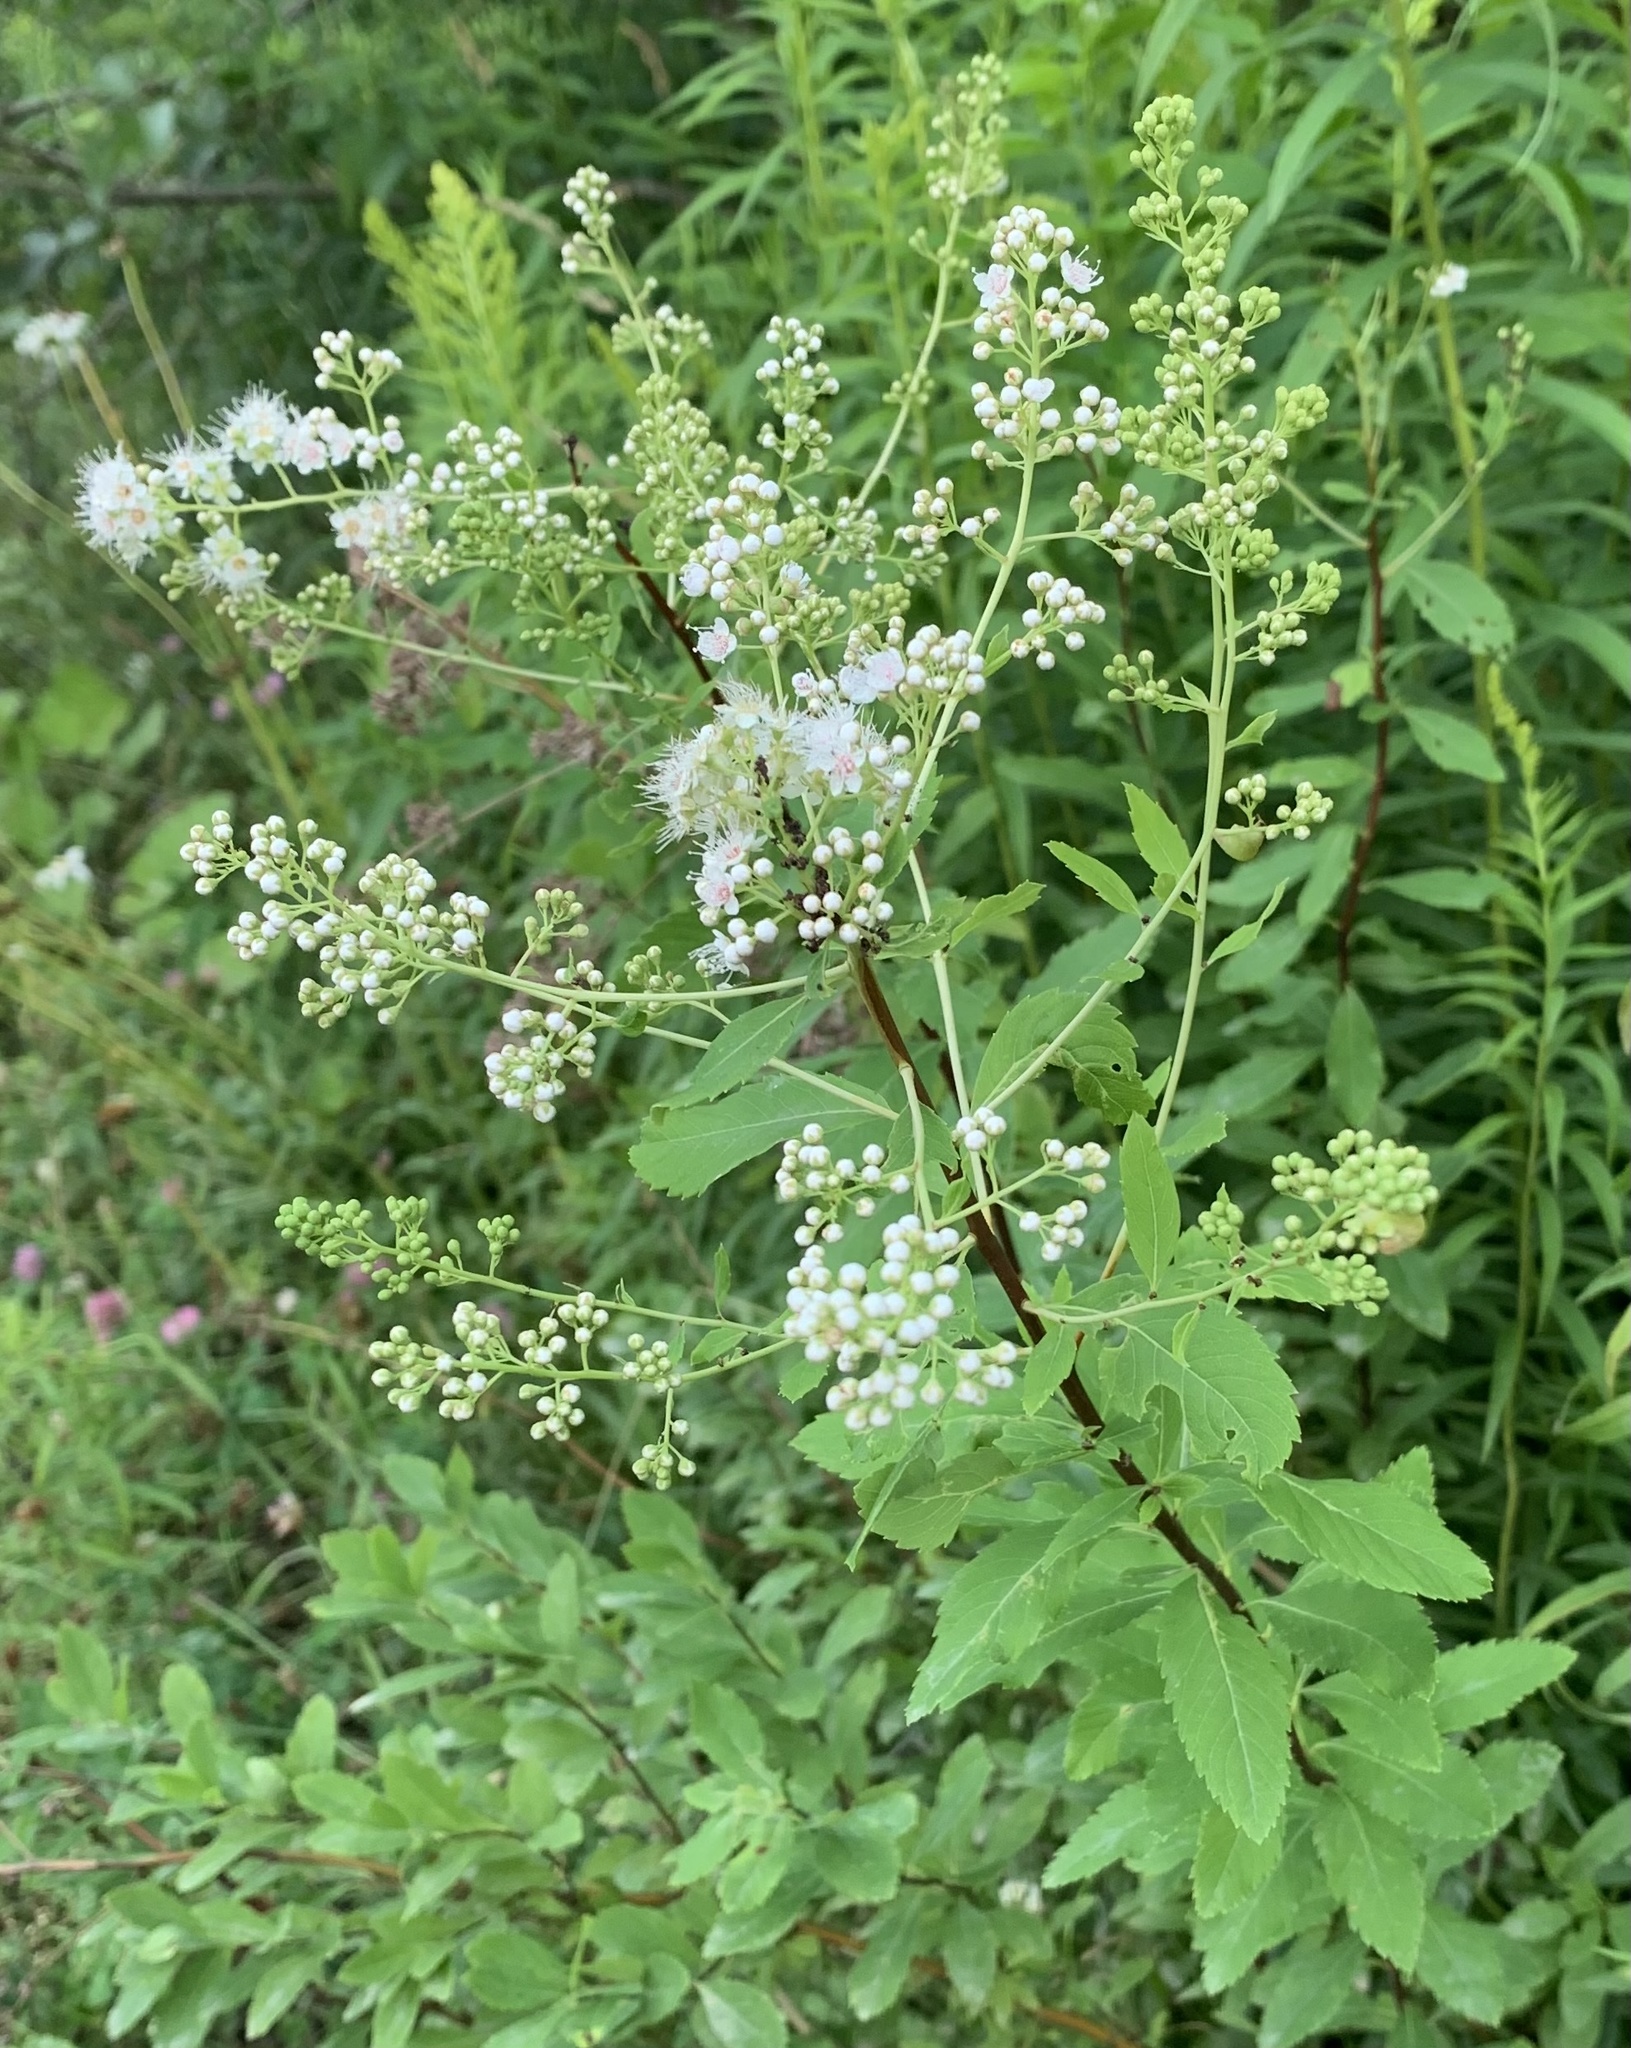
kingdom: Plantae
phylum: Tracheophyta
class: Magnoliopsida
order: Rosales
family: Rosaceae
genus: Spiraea
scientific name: Spiraea alba
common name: Pale bridewort
